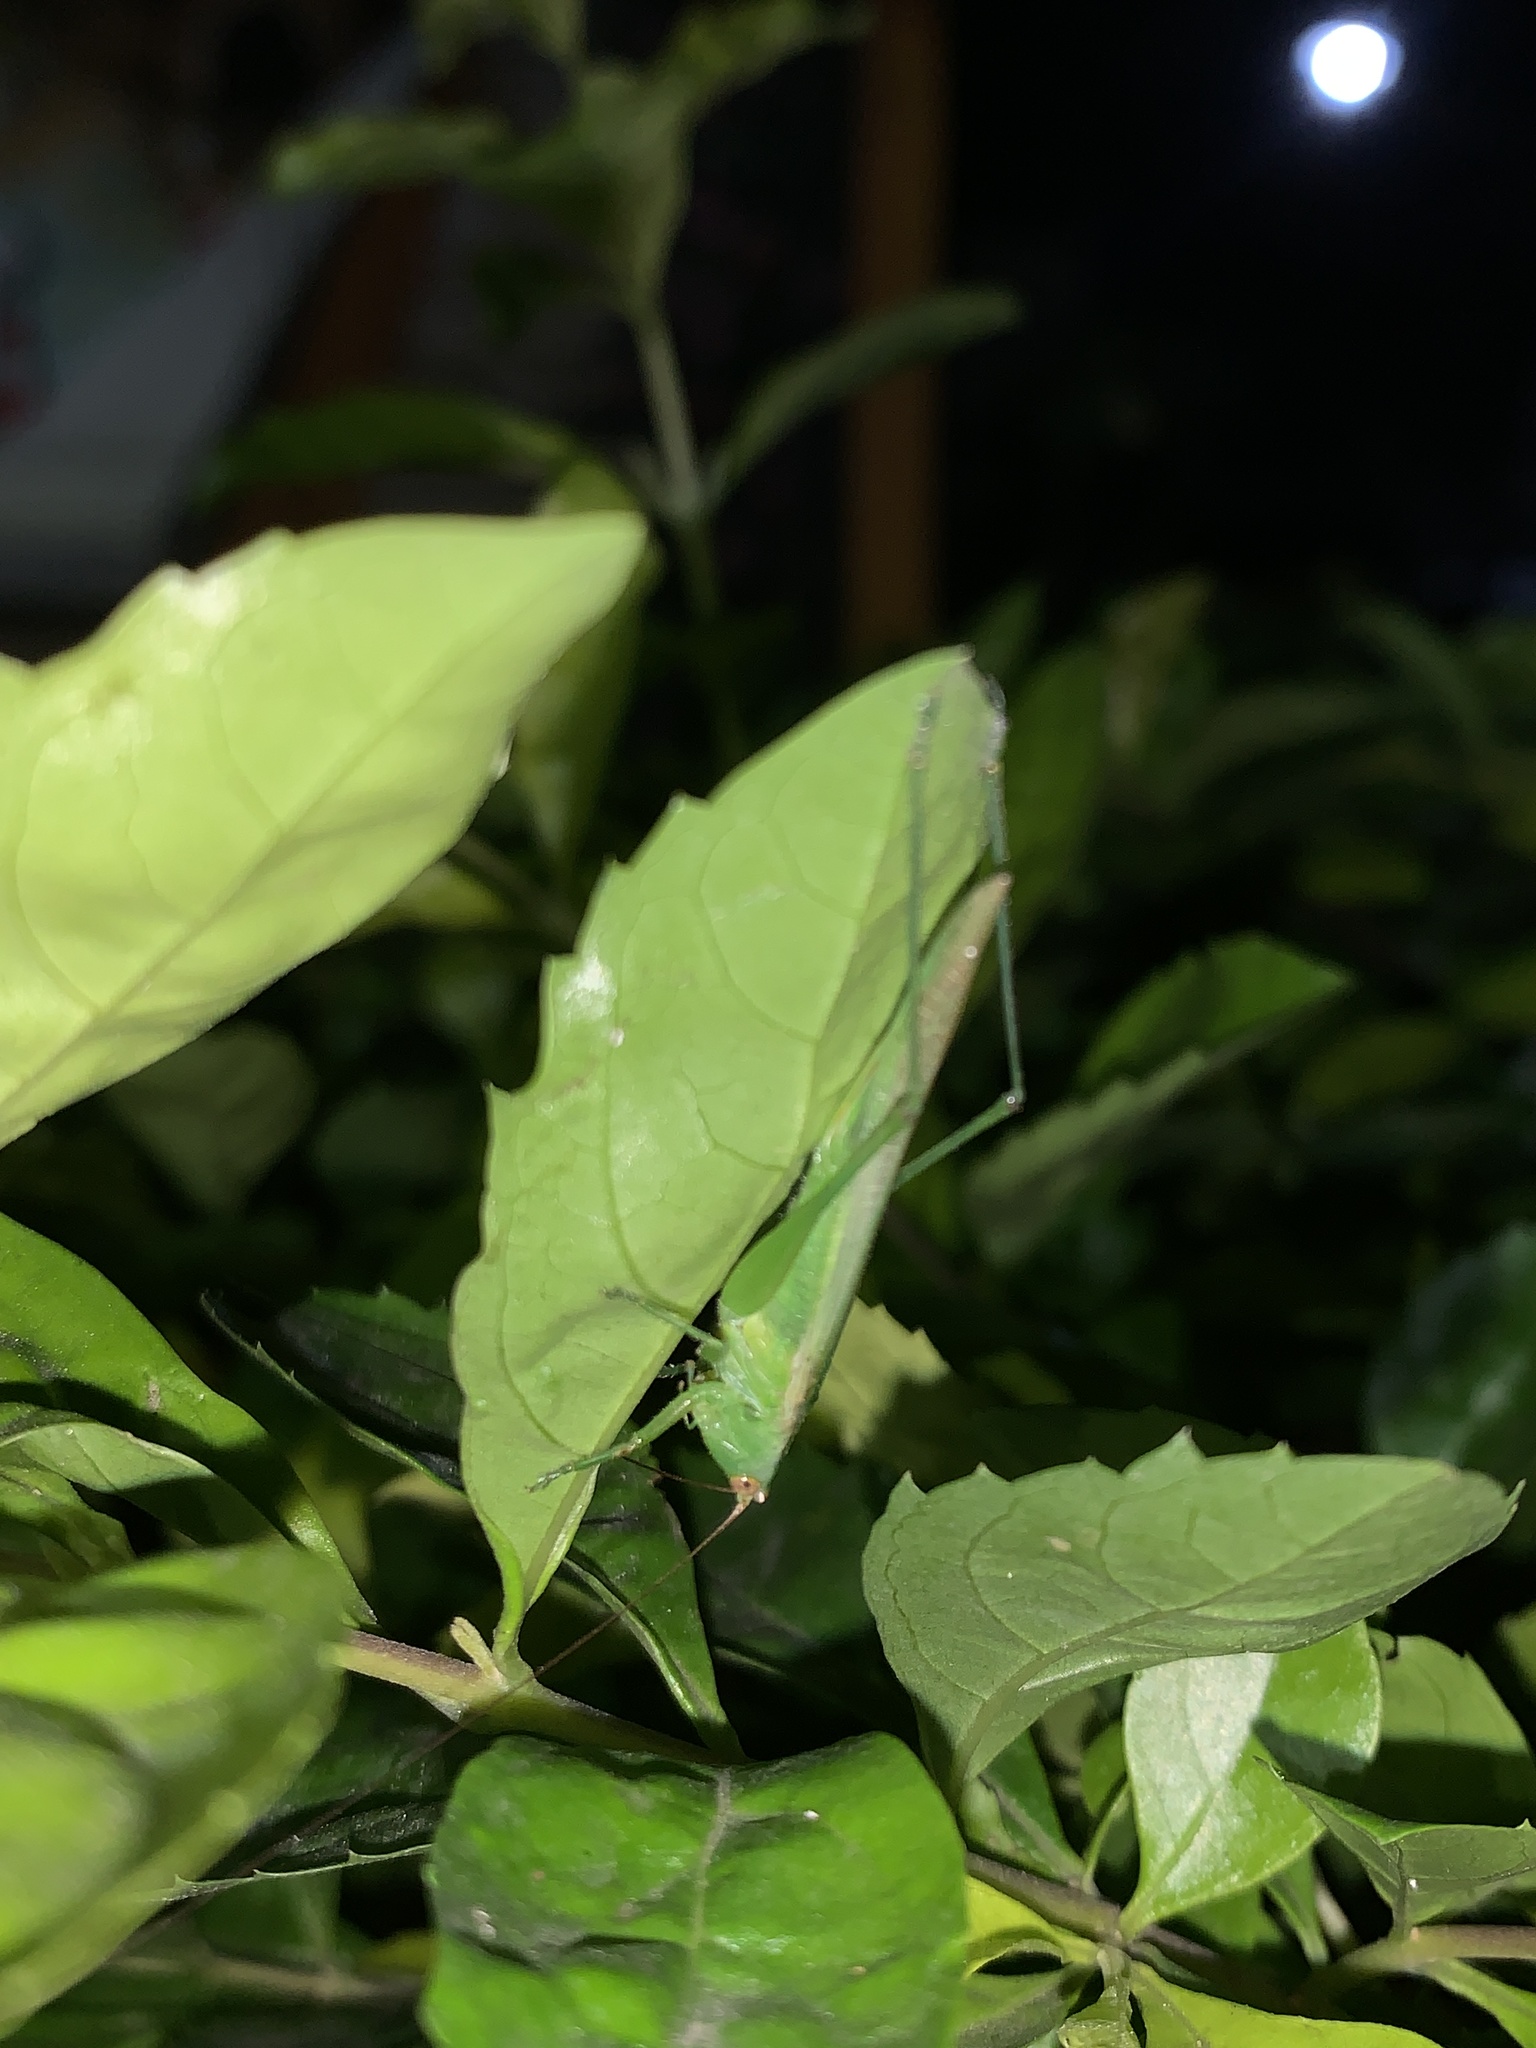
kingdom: Animalia
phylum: Arthropoda
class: Insecta
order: Orthoptera
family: Tettigoniidae
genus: Conocephalus
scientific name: Conocephalus longipes
